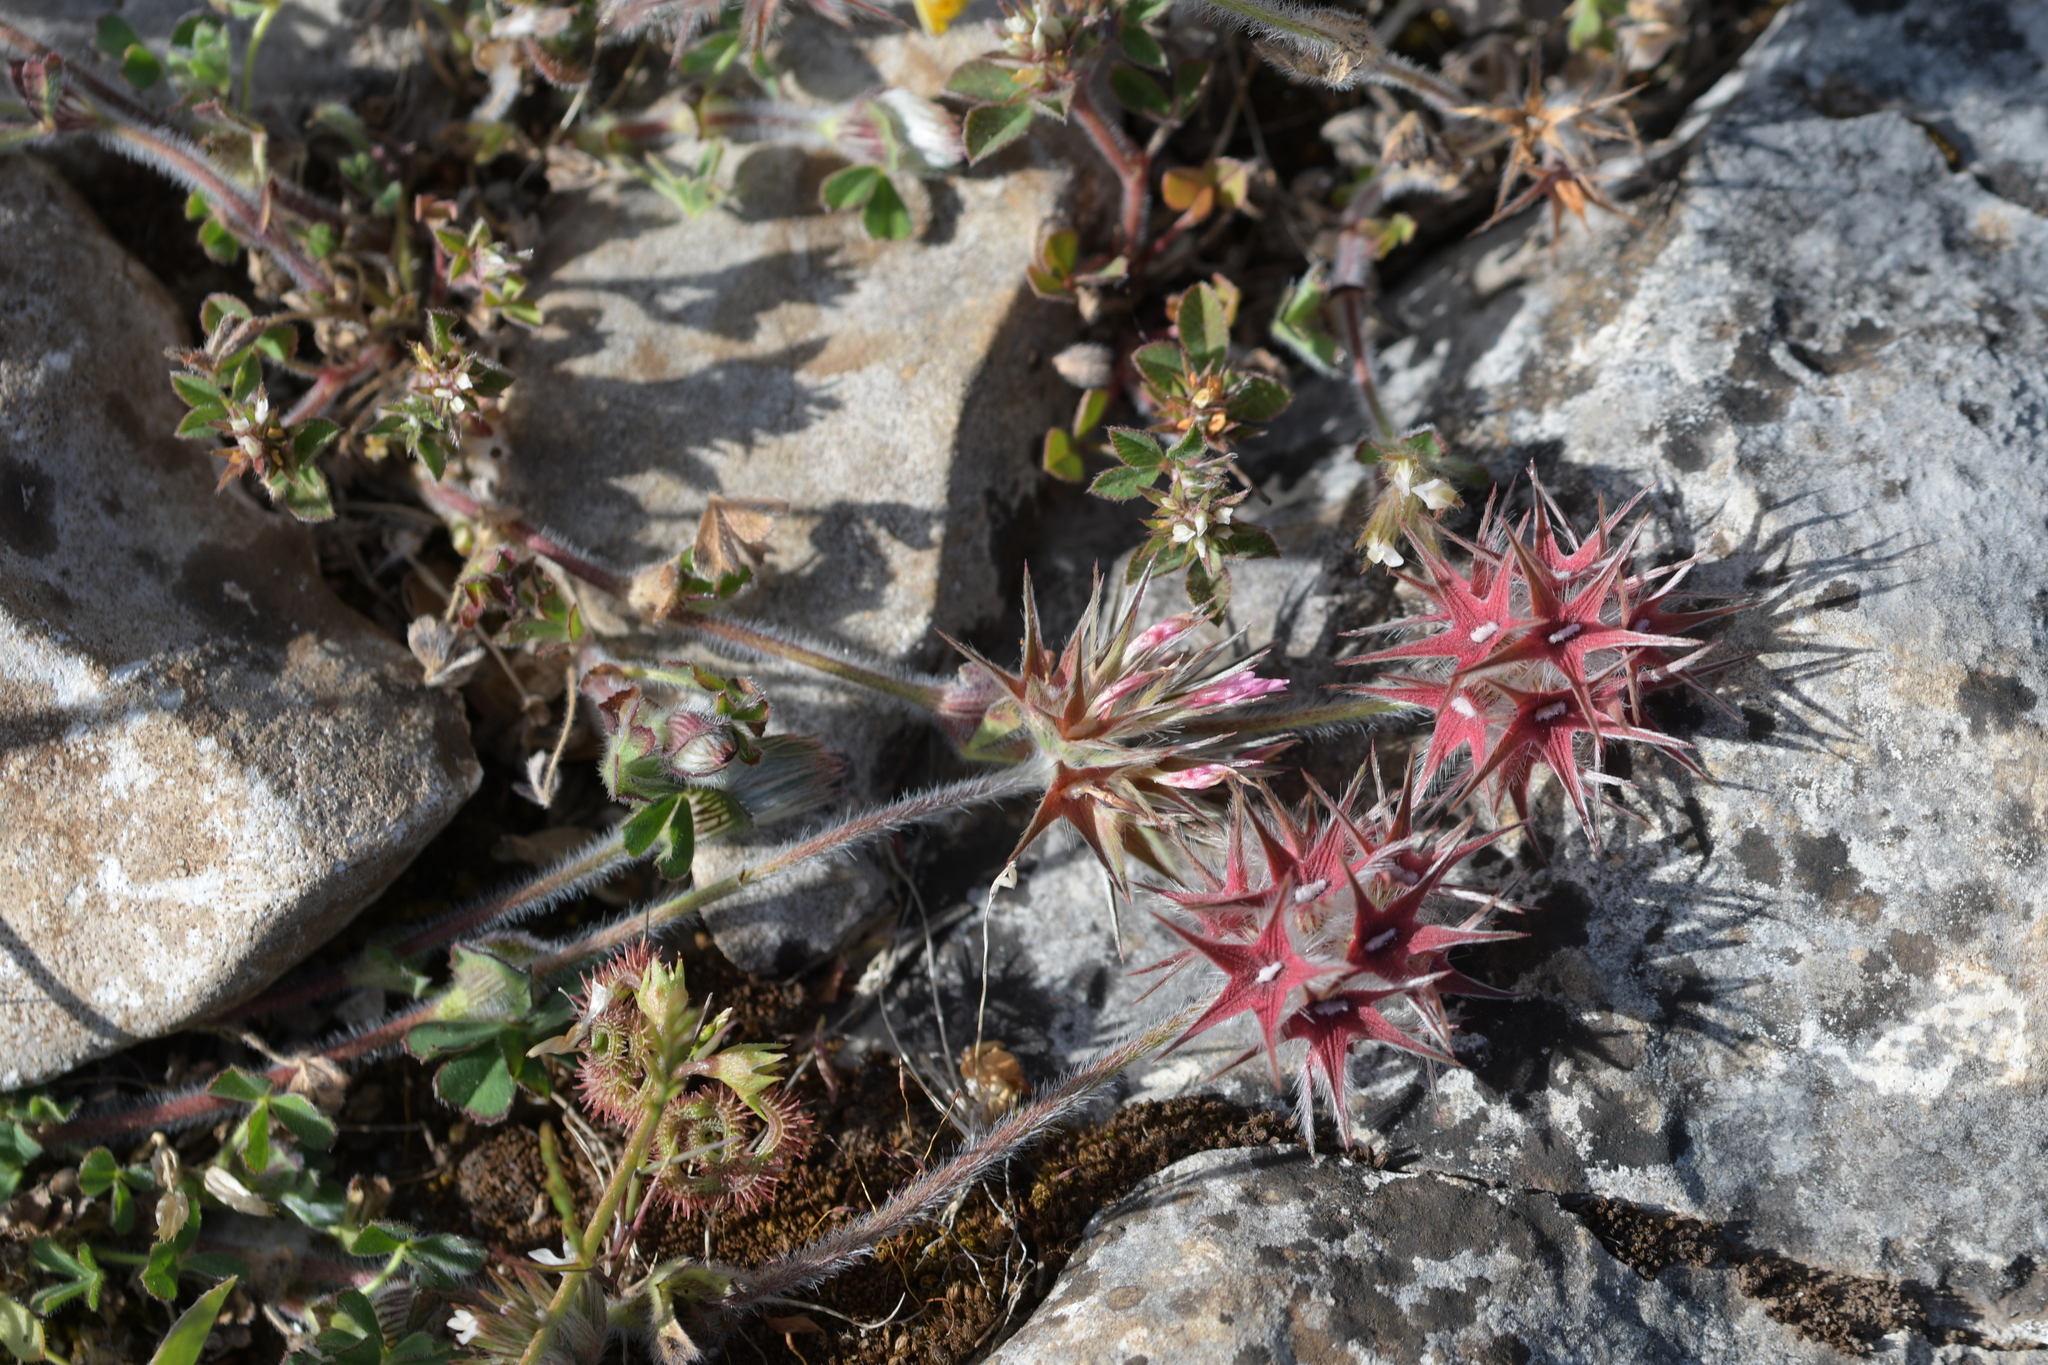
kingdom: Plantae
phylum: Tracheophyta
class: Magnoliopsida
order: Fabales
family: Fabaceae
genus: Trifolium
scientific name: Trifolium stellatum
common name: Starry clover
